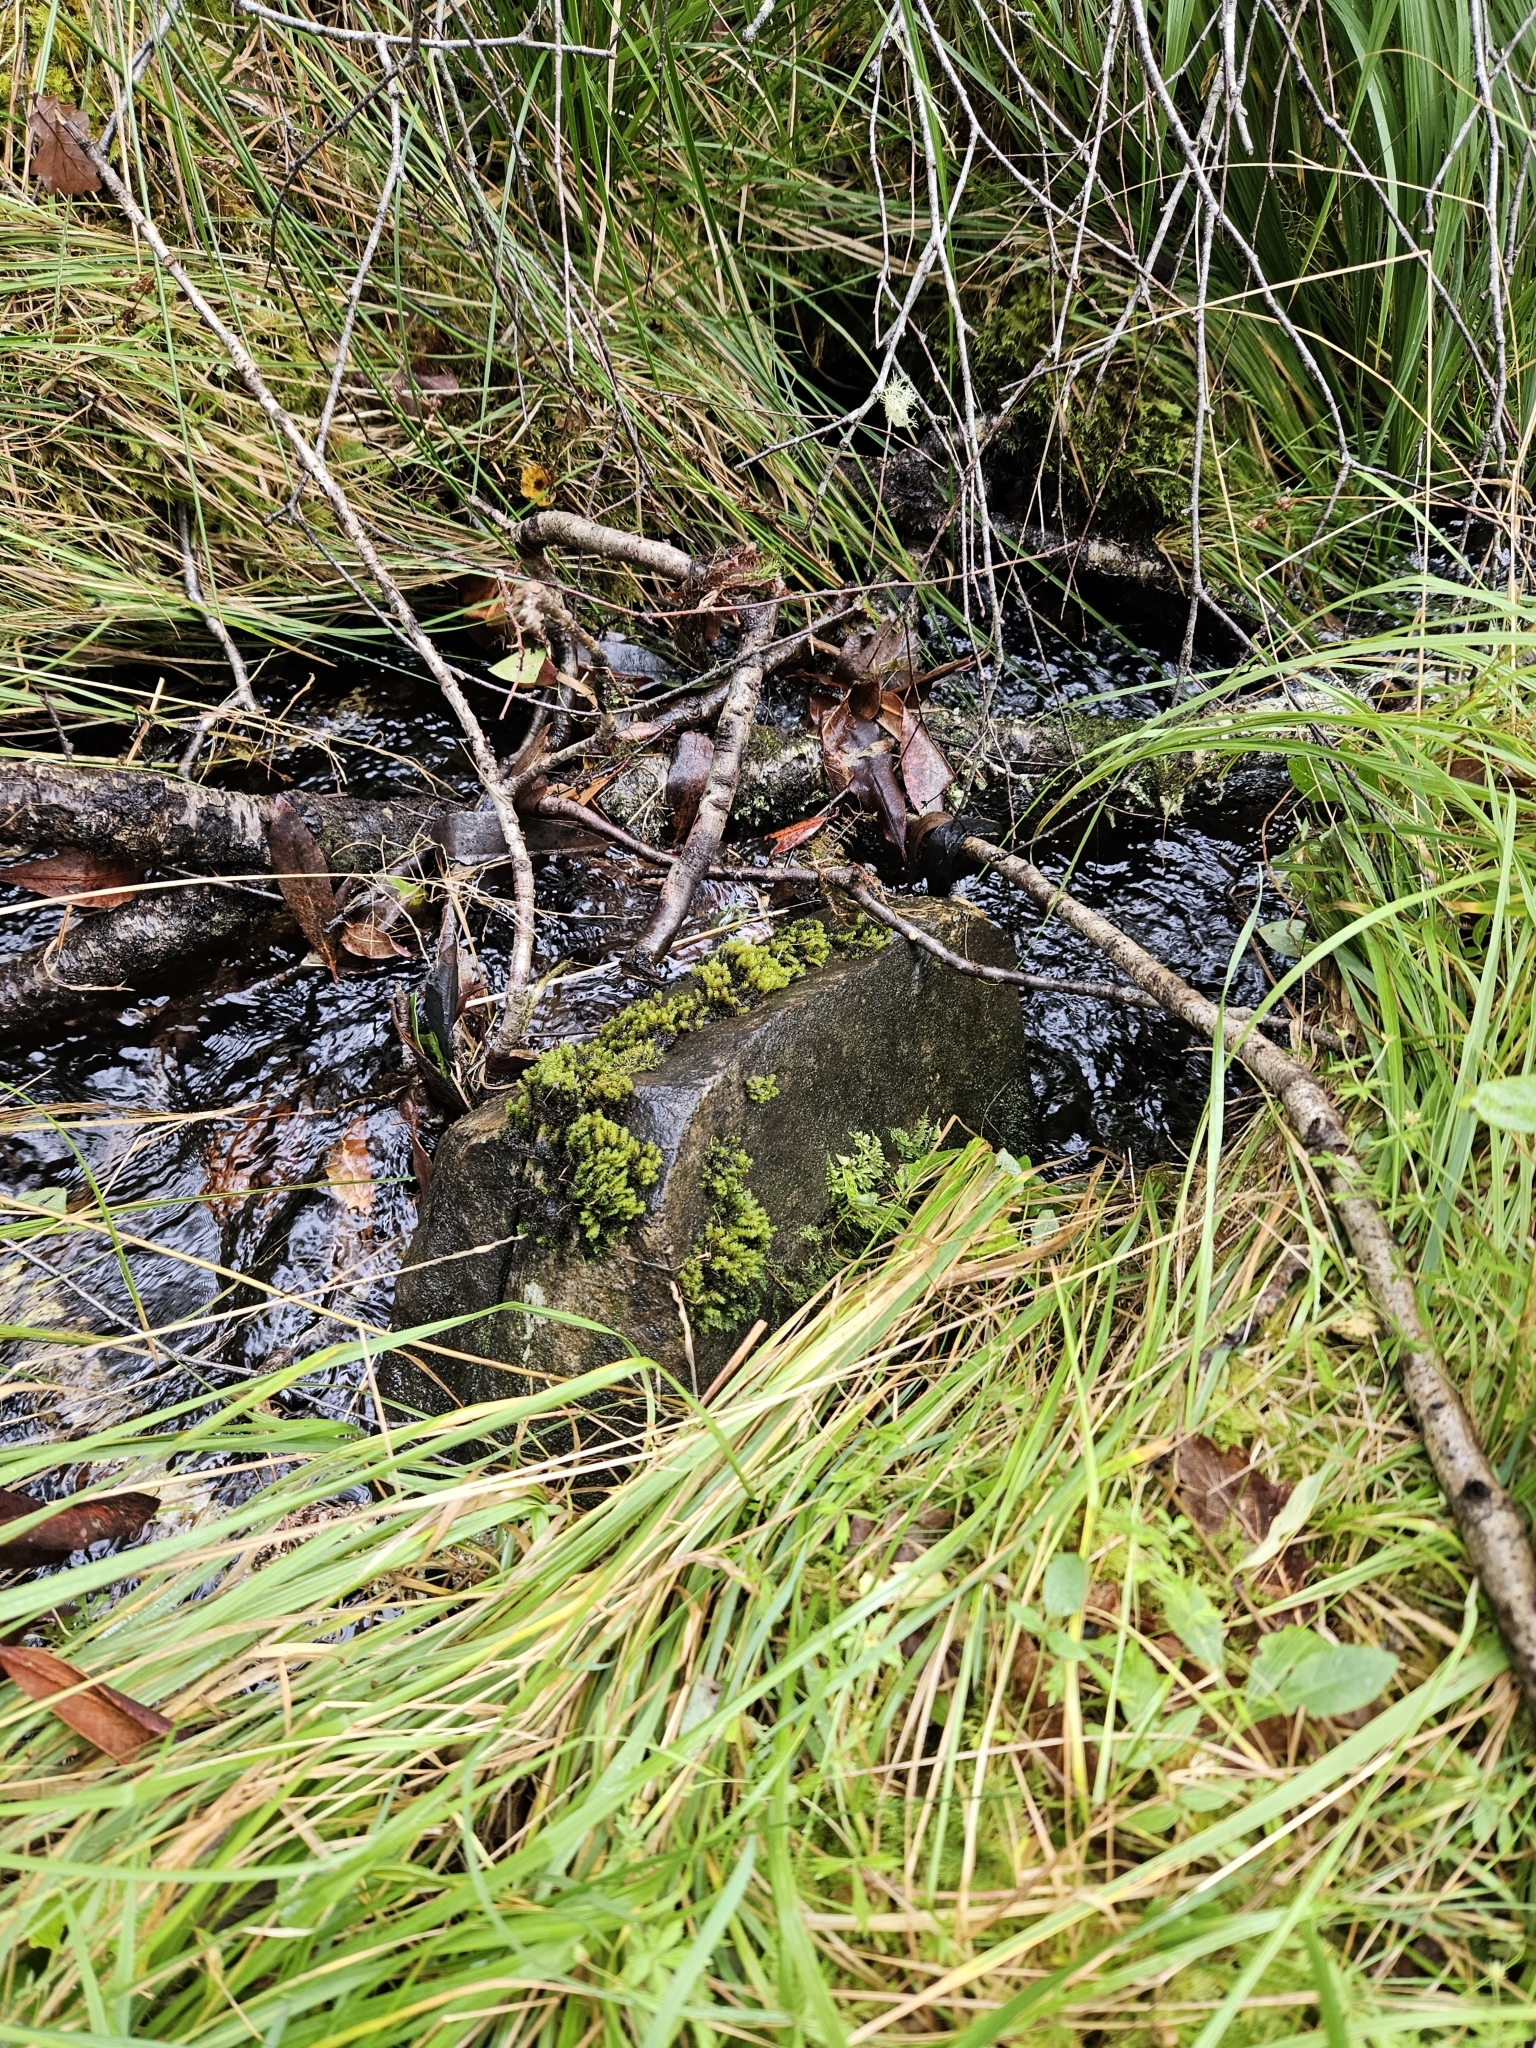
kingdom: Plantae
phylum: Bryophyta
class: Bryopsida
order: Grimmiales
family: Grimmiaceae
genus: Codriophorus
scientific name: Codriophorus acicularis
